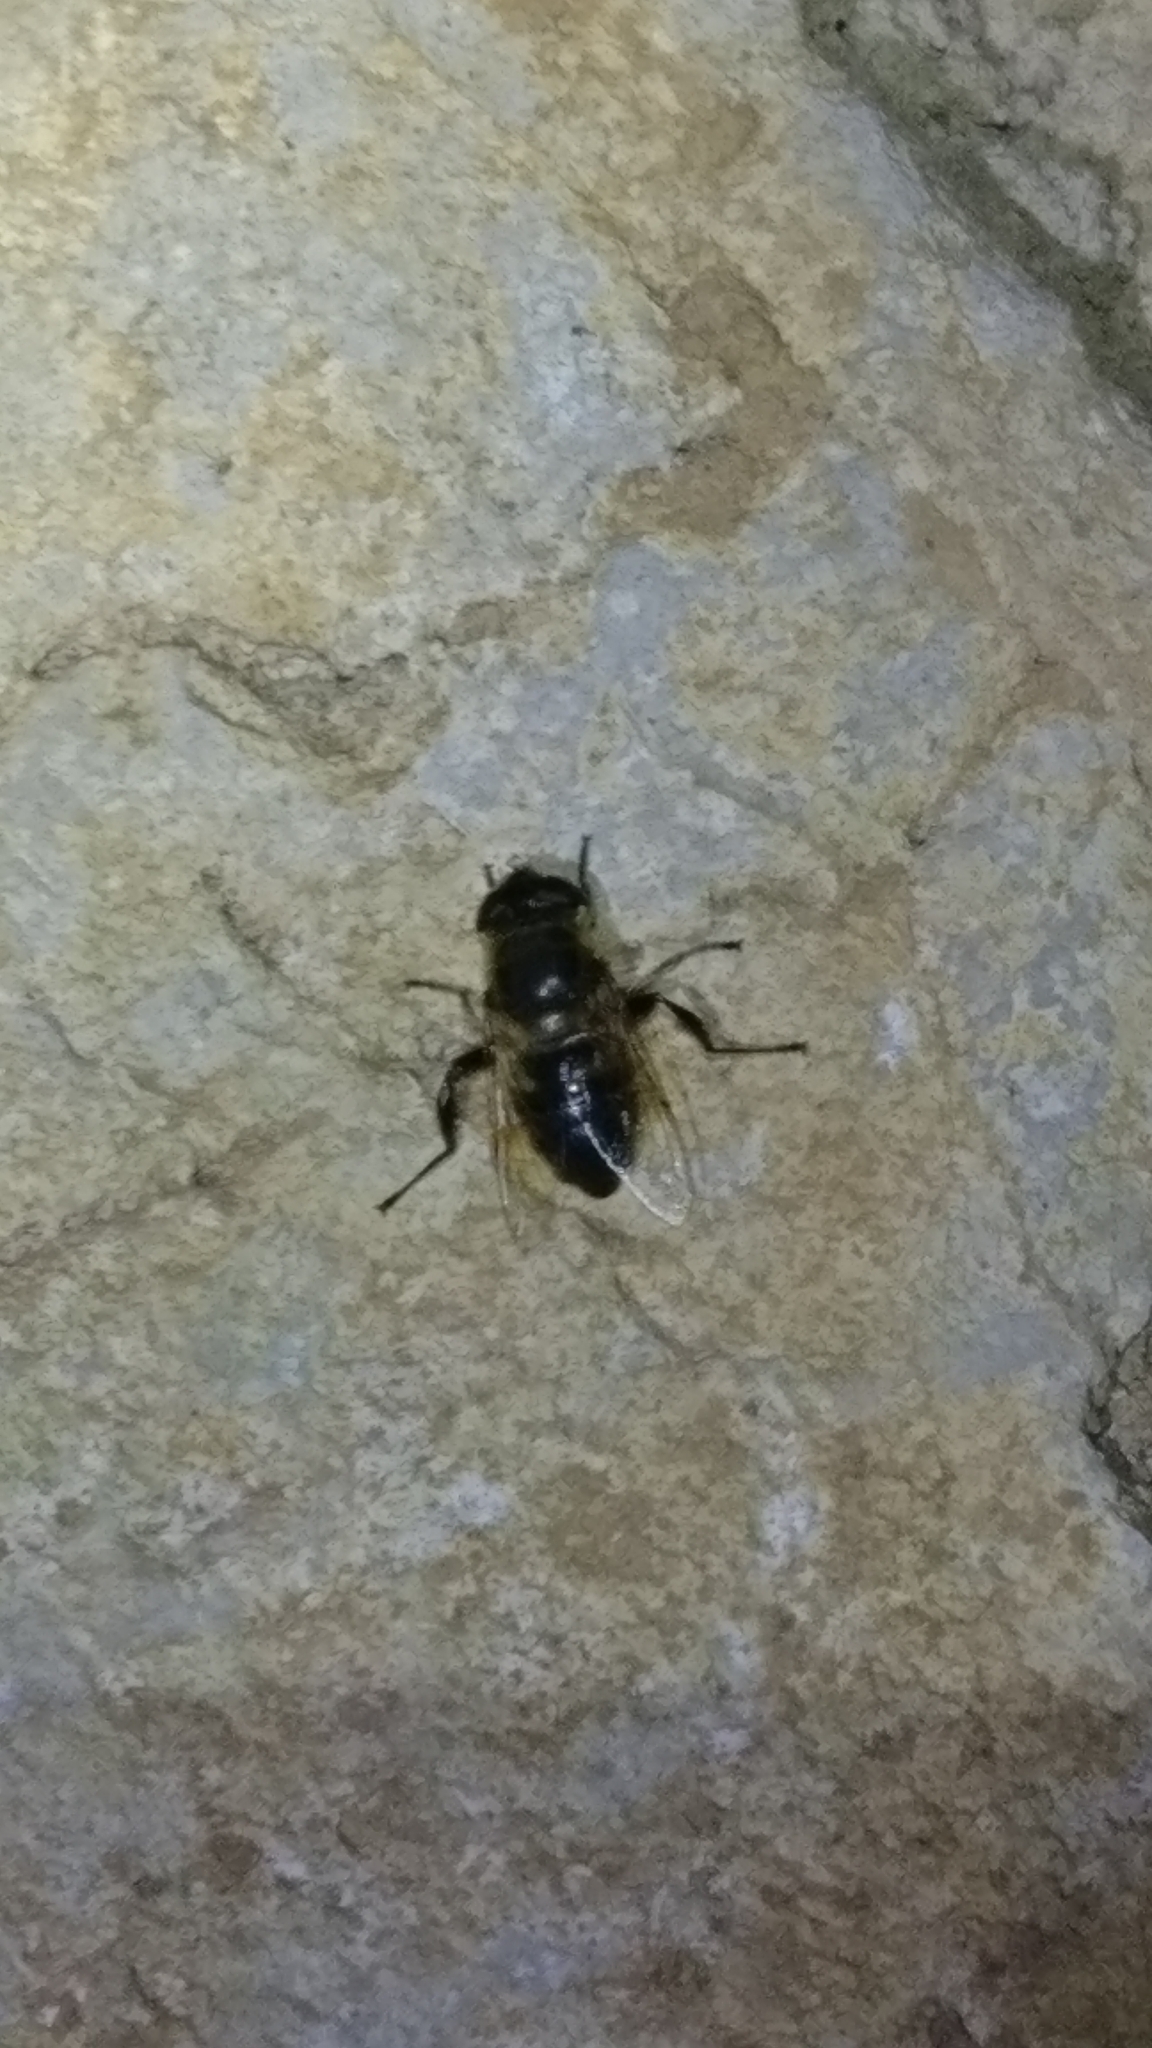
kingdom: Animalia
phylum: Arthropoda
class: Insecta
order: Diptera
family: Syrphidae
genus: Eristalis
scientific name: Eristalis tenax
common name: Drone fly
